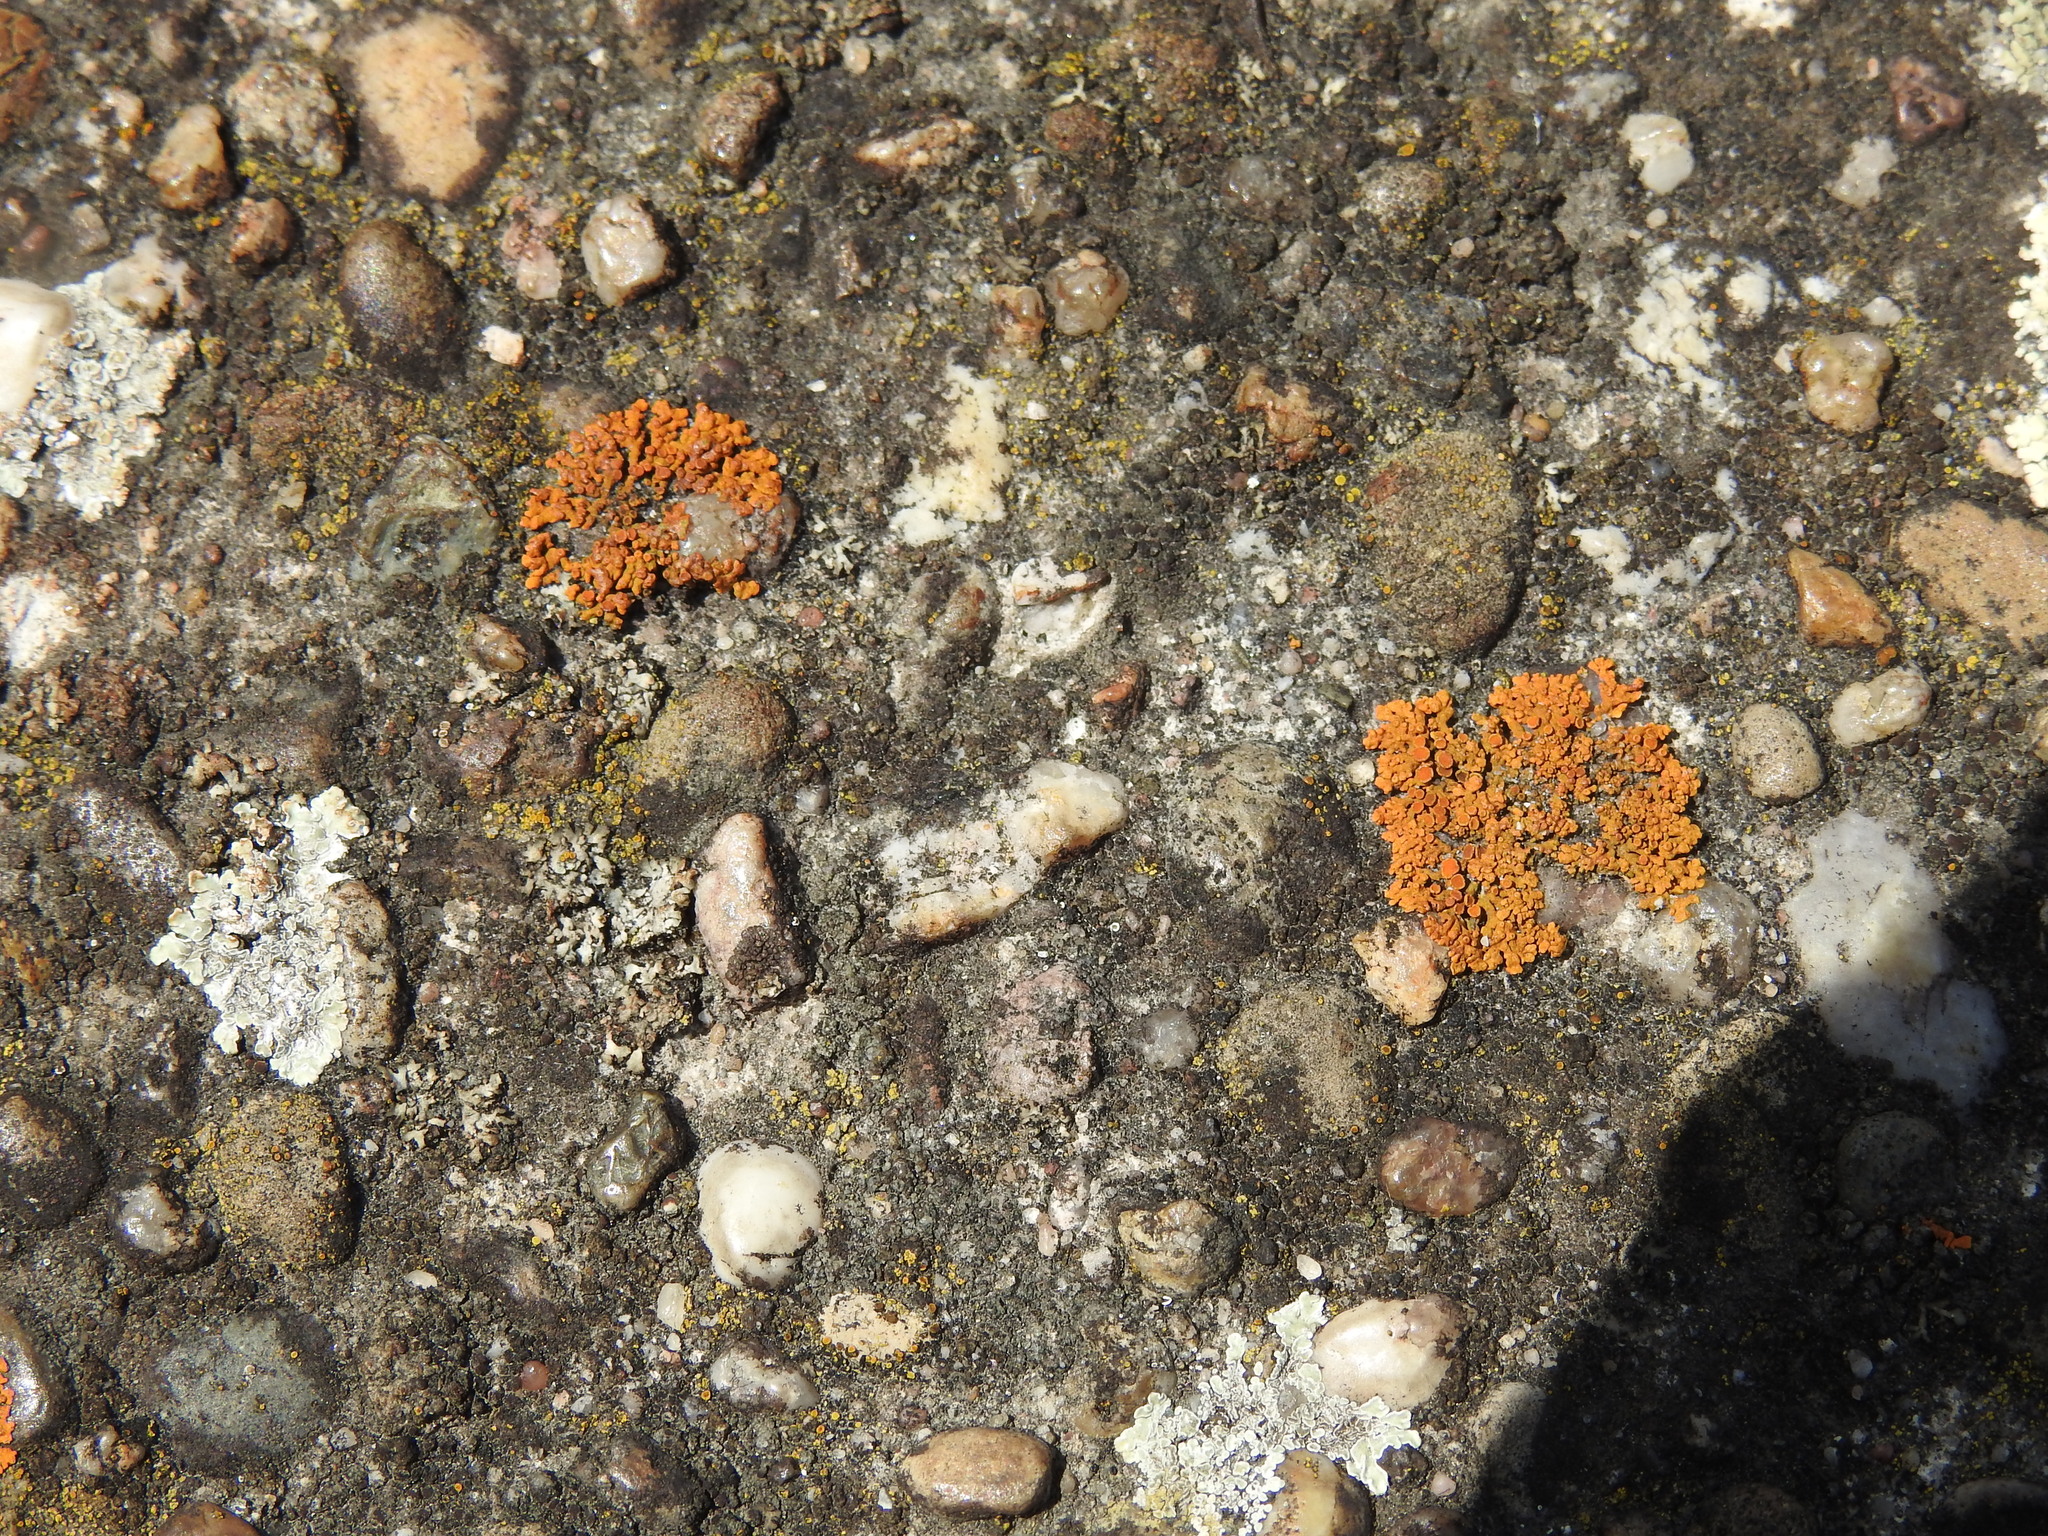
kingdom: Fungi
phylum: Ascomycota
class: Lecanoromycetes
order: Teloschistales
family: Teloschistaceae
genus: Xanthoria
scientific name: Xanthoria elegans
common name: Elegant sunburst lichen
